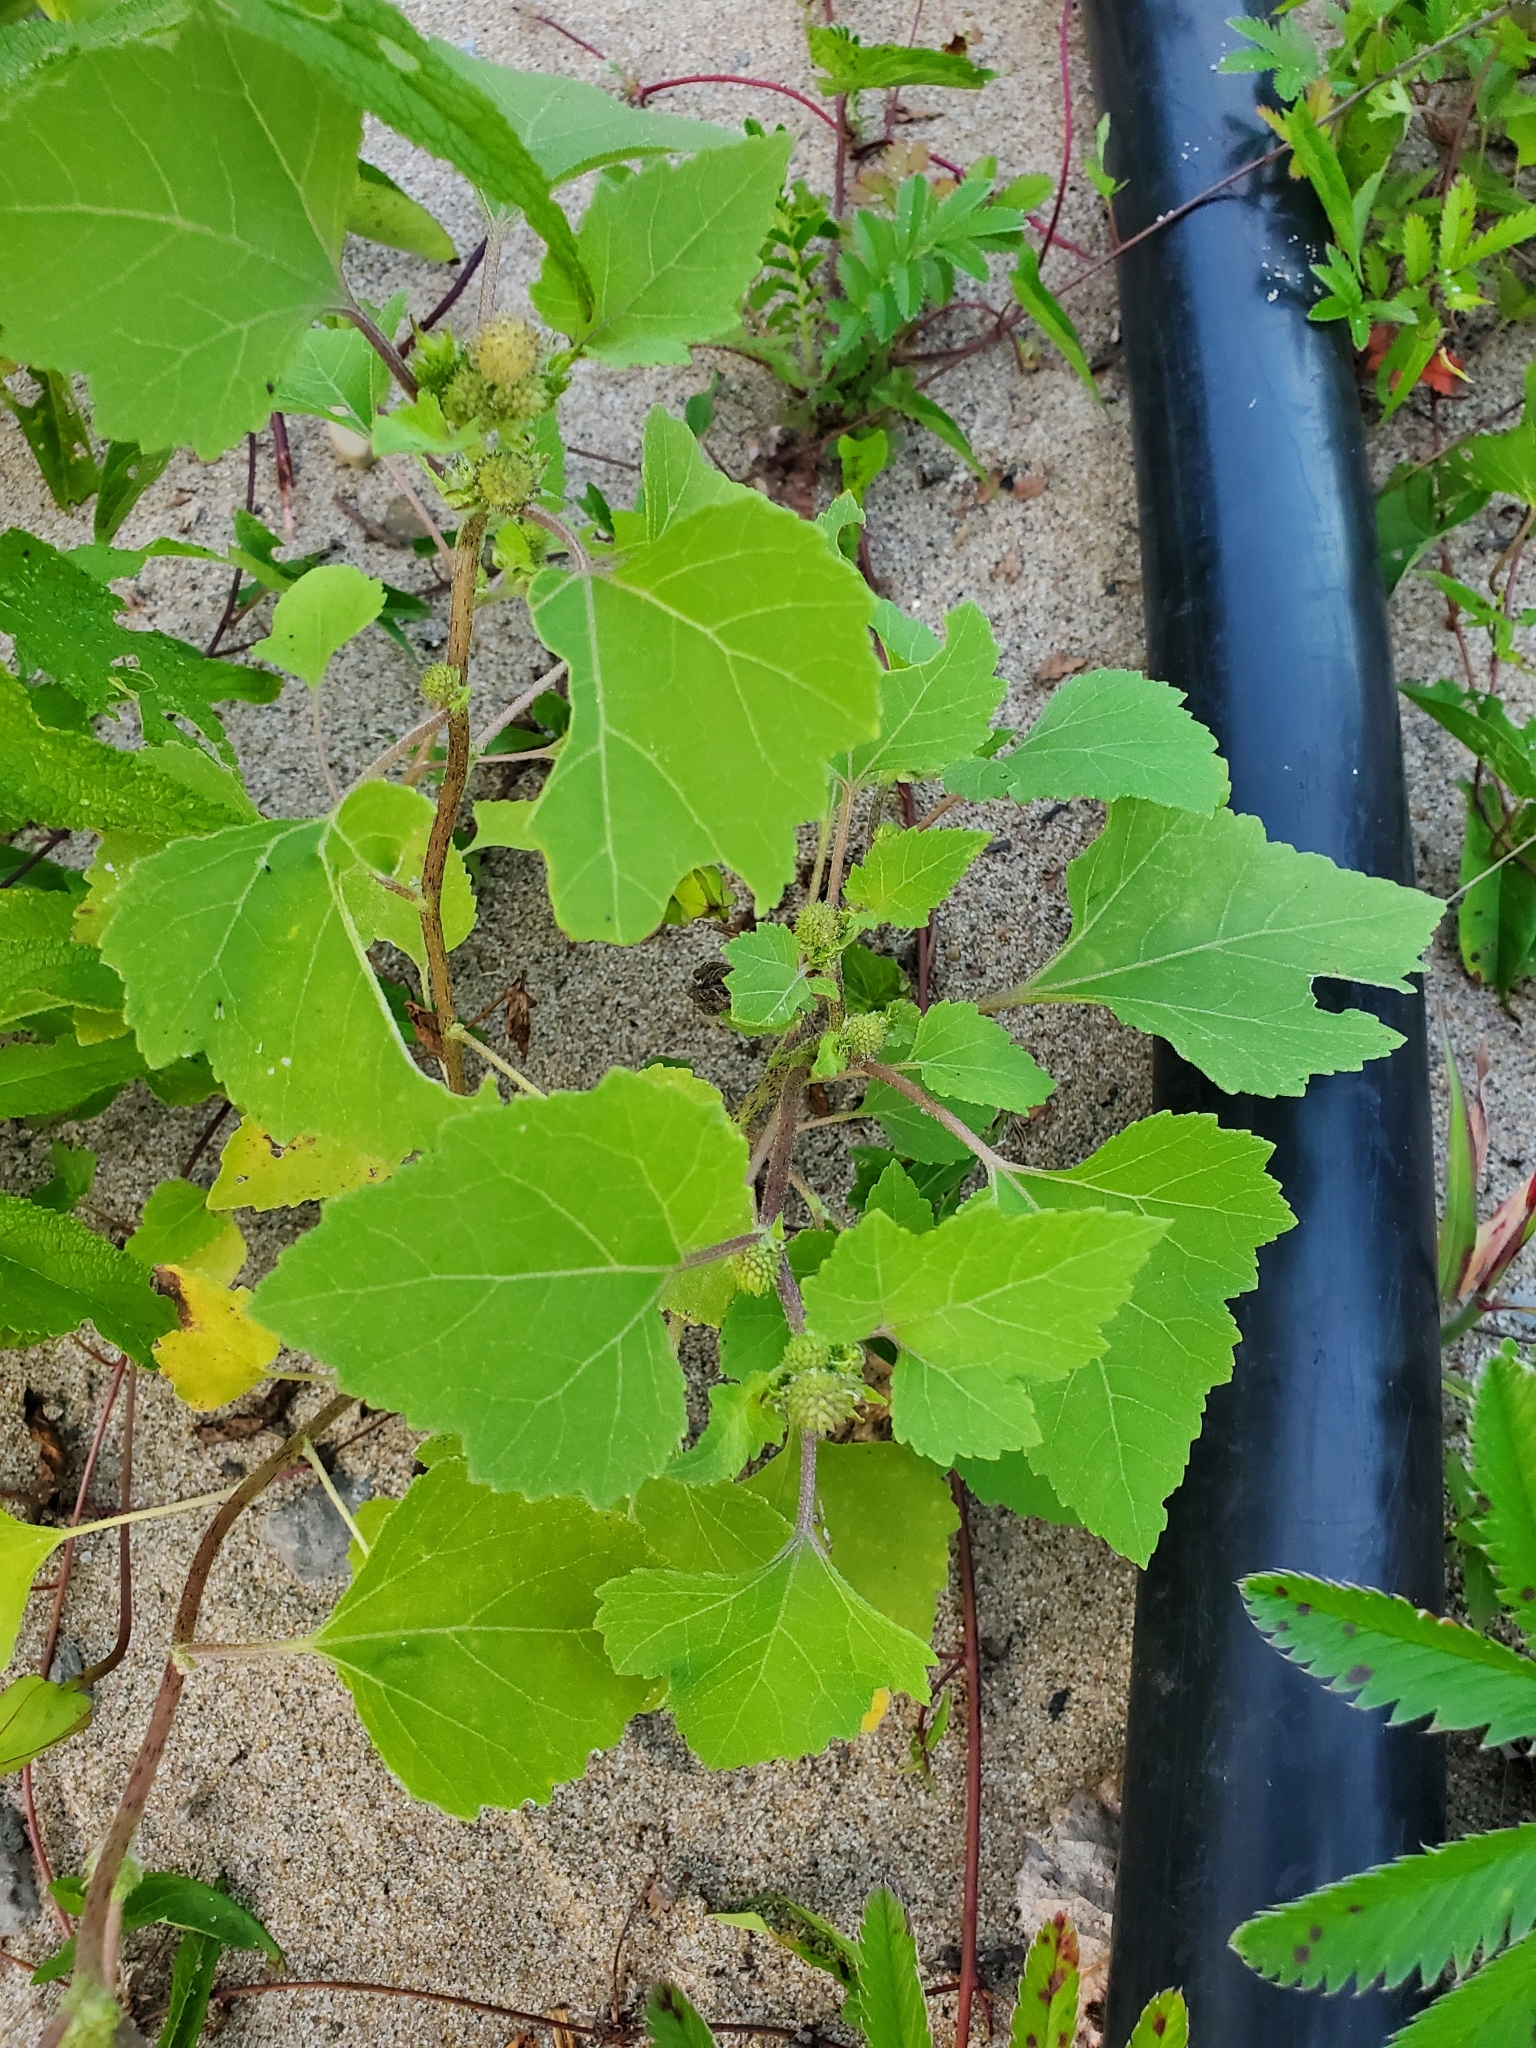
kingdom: Plantae
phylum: Tracheophyta
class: Magnoliopsida
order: Asterales
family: Asteraceae
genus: Xanthium
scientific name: Xanthium strumarium
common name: Rough cocklebur
